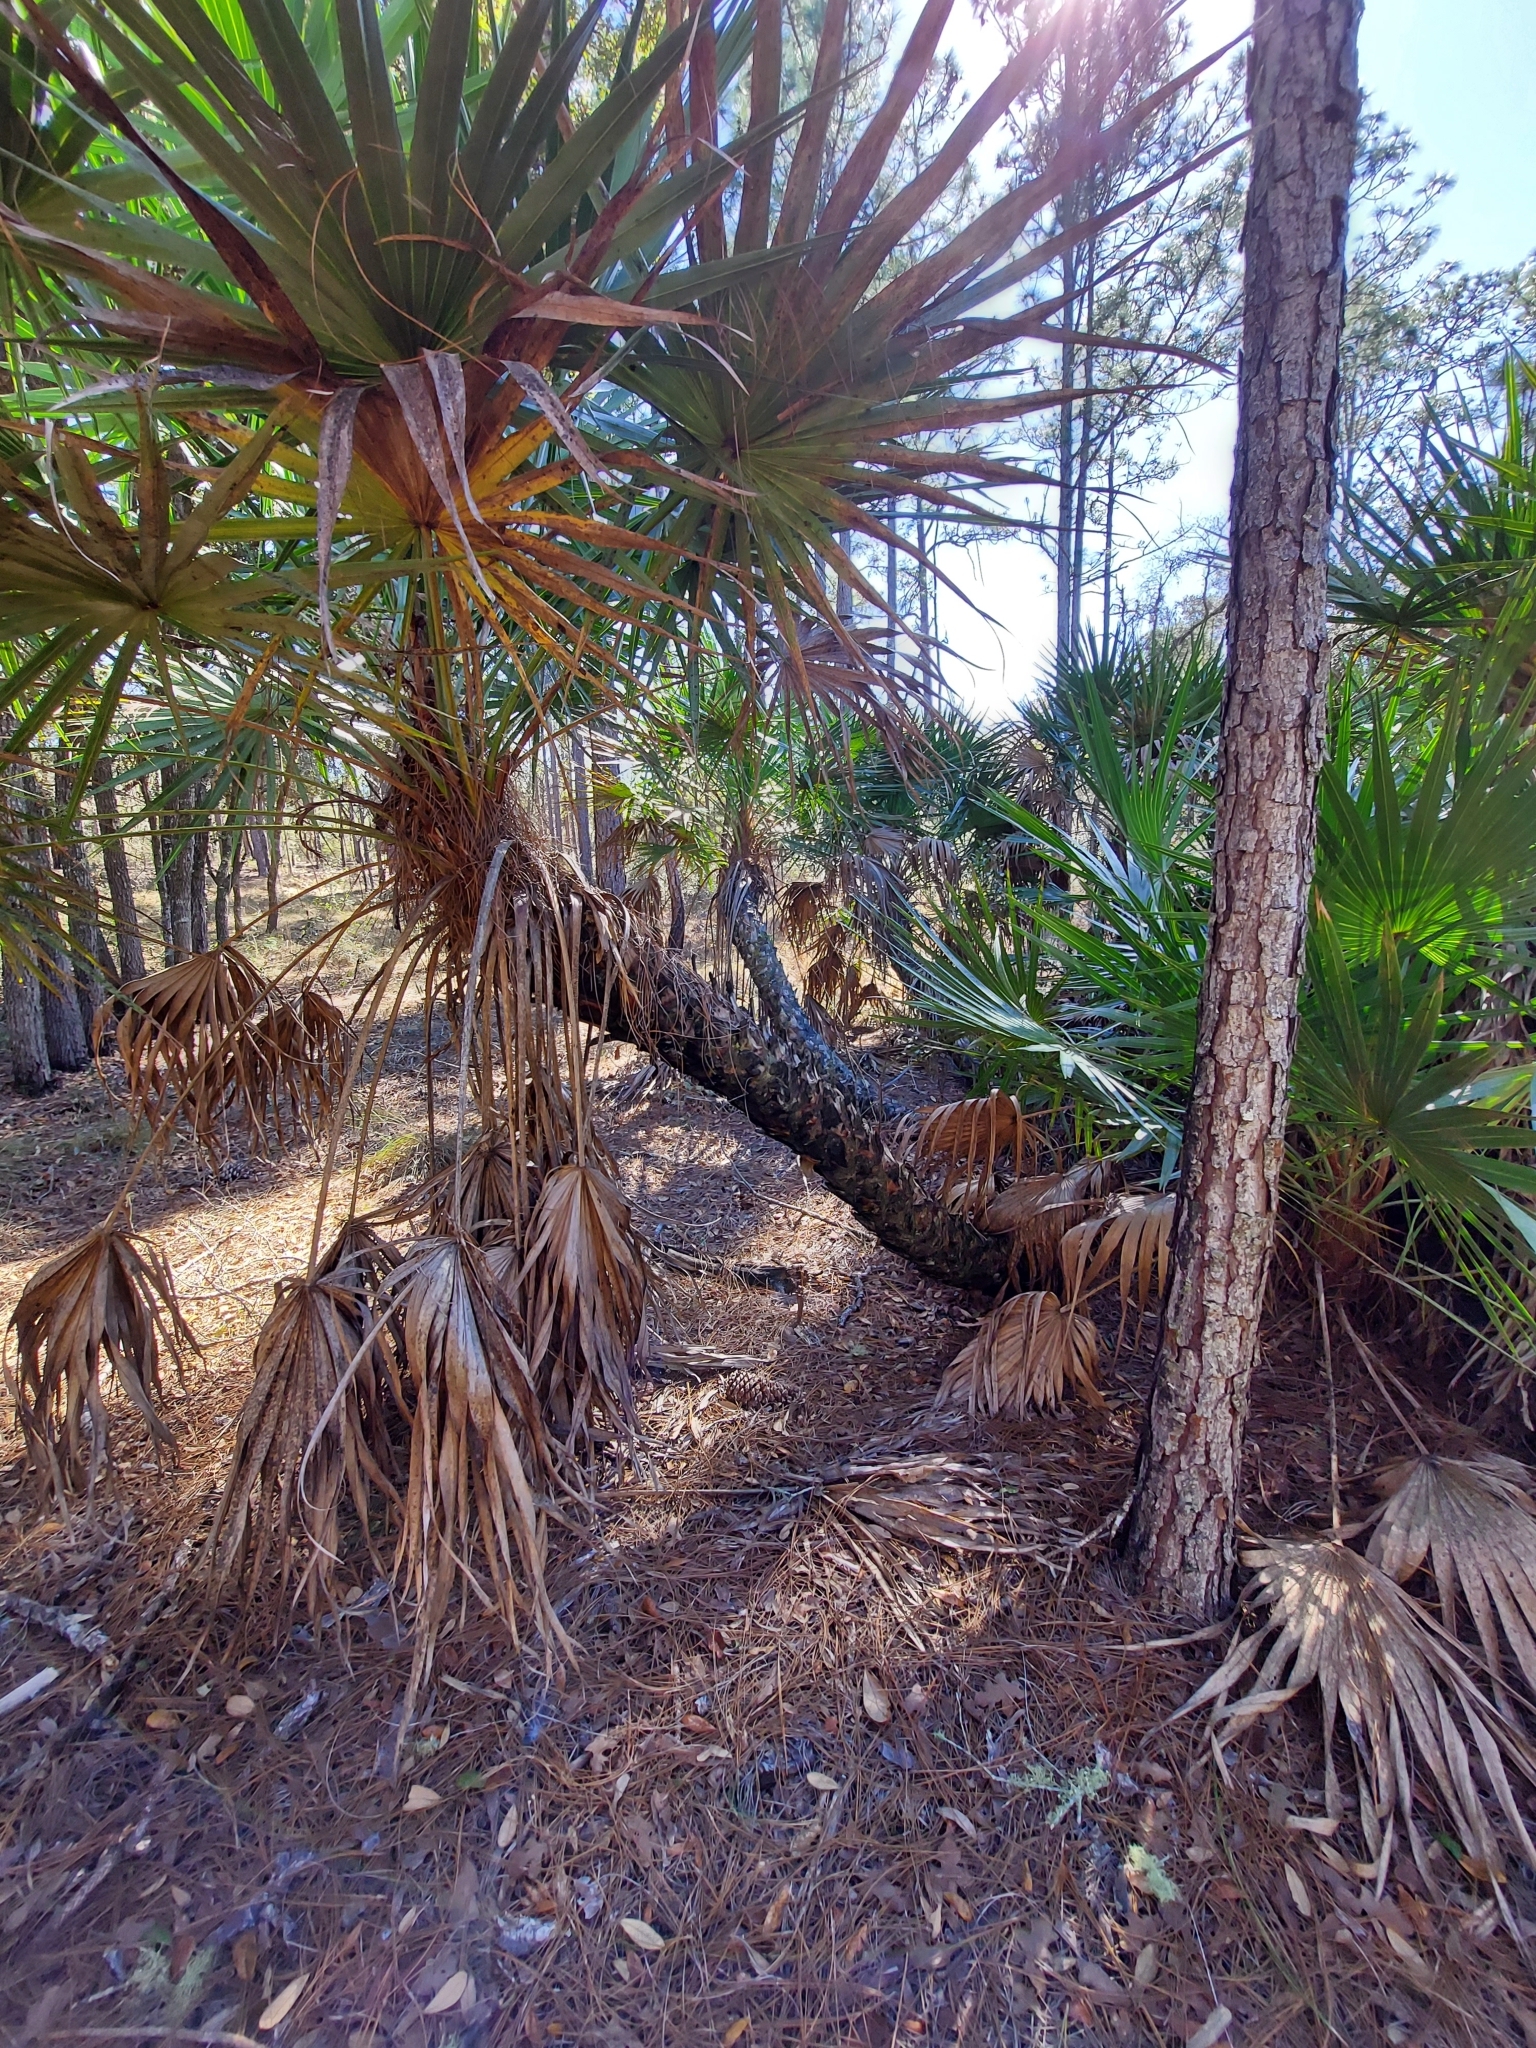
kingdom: Plantae
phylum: Tracheophyta
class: Liliopsida
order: Arecales
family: Arecaceae
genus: Serenoa
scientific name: Serenoa repens
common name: Saw-palmetto
